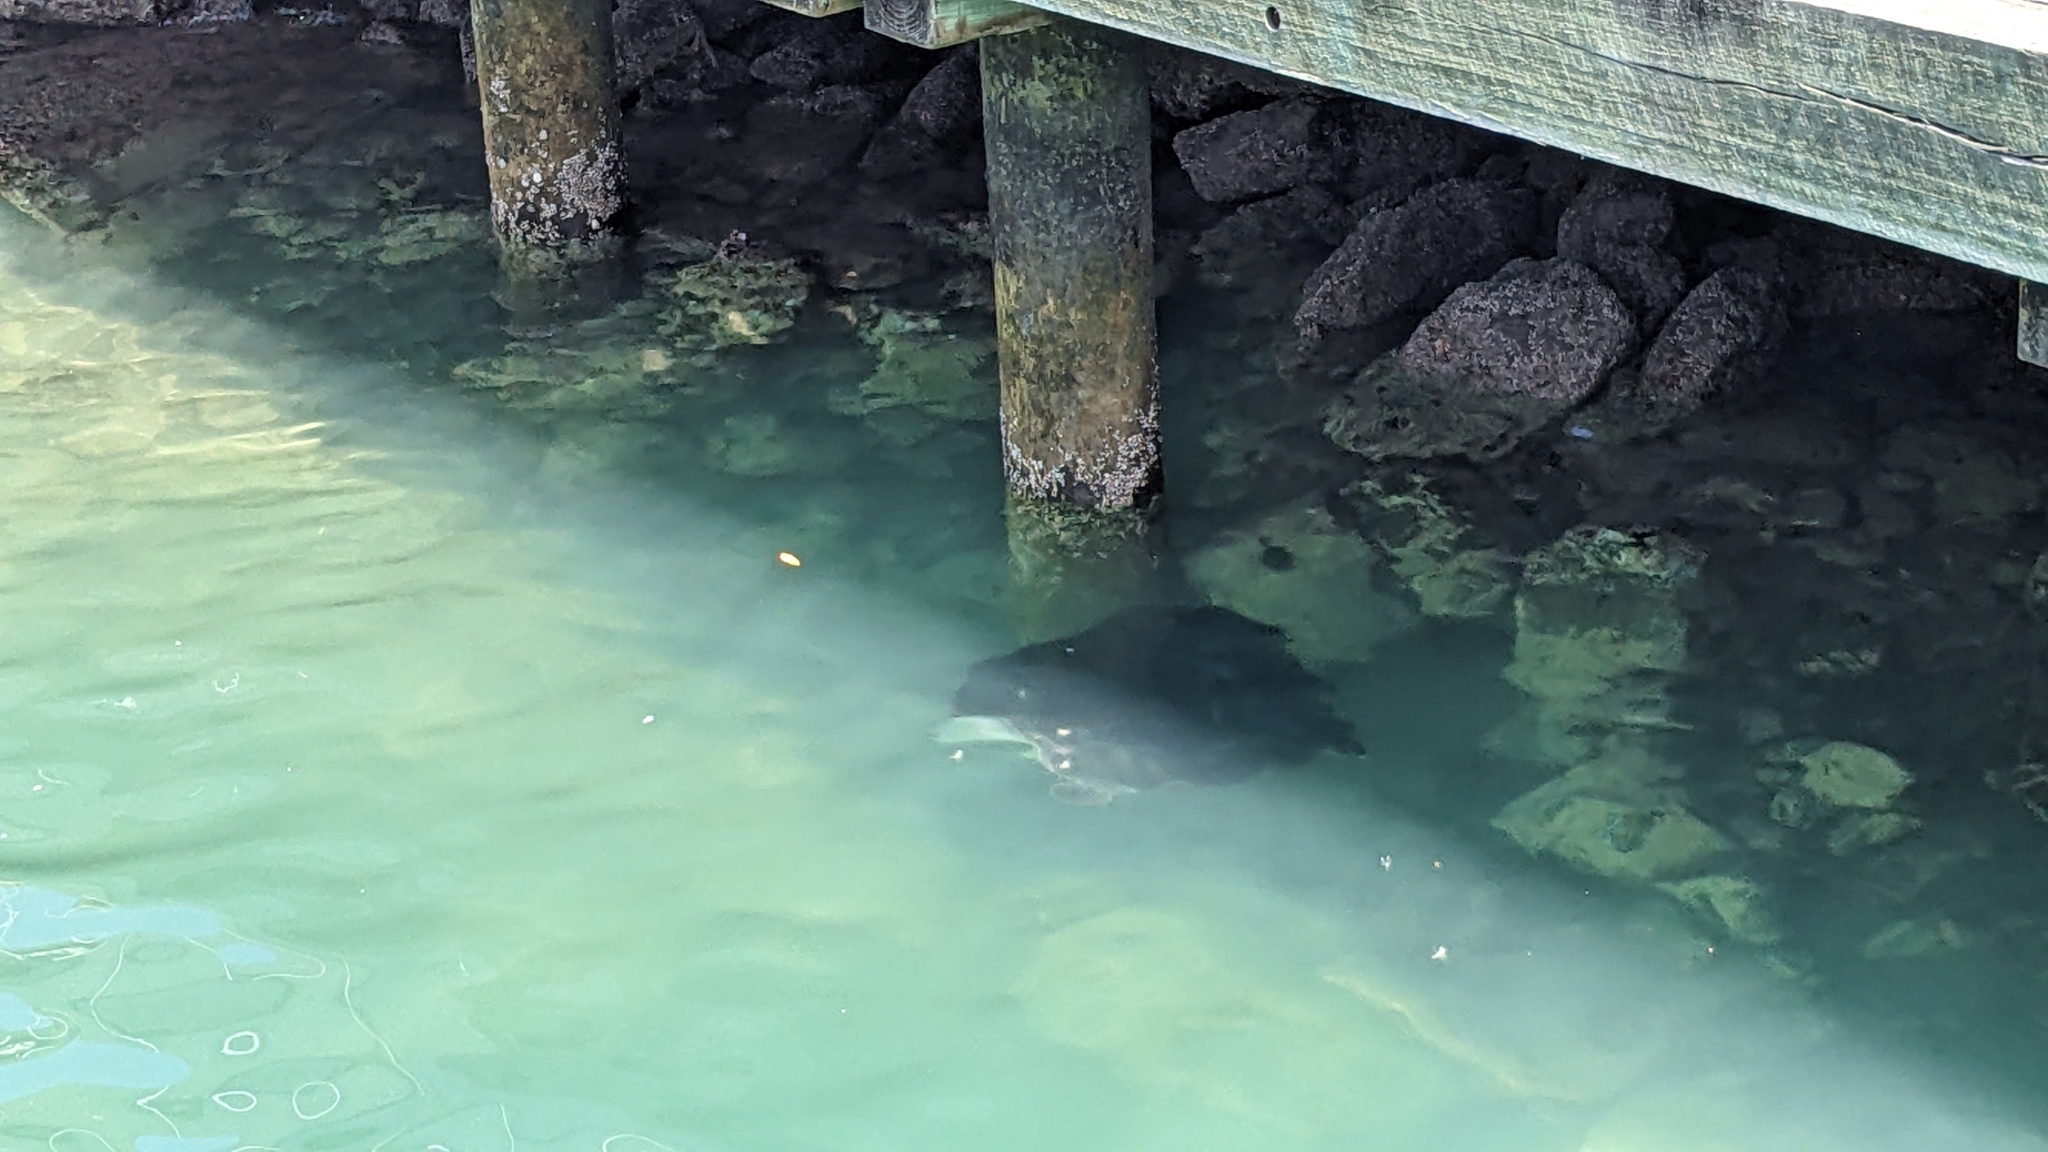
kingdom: Animalia
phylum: Chordata
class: Elasmobranchii
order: Myliobatiformes
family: Dasyatidae
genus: Bathytoshia
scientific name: Bathytoshia brevicaudata
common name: Short-tail stingray
